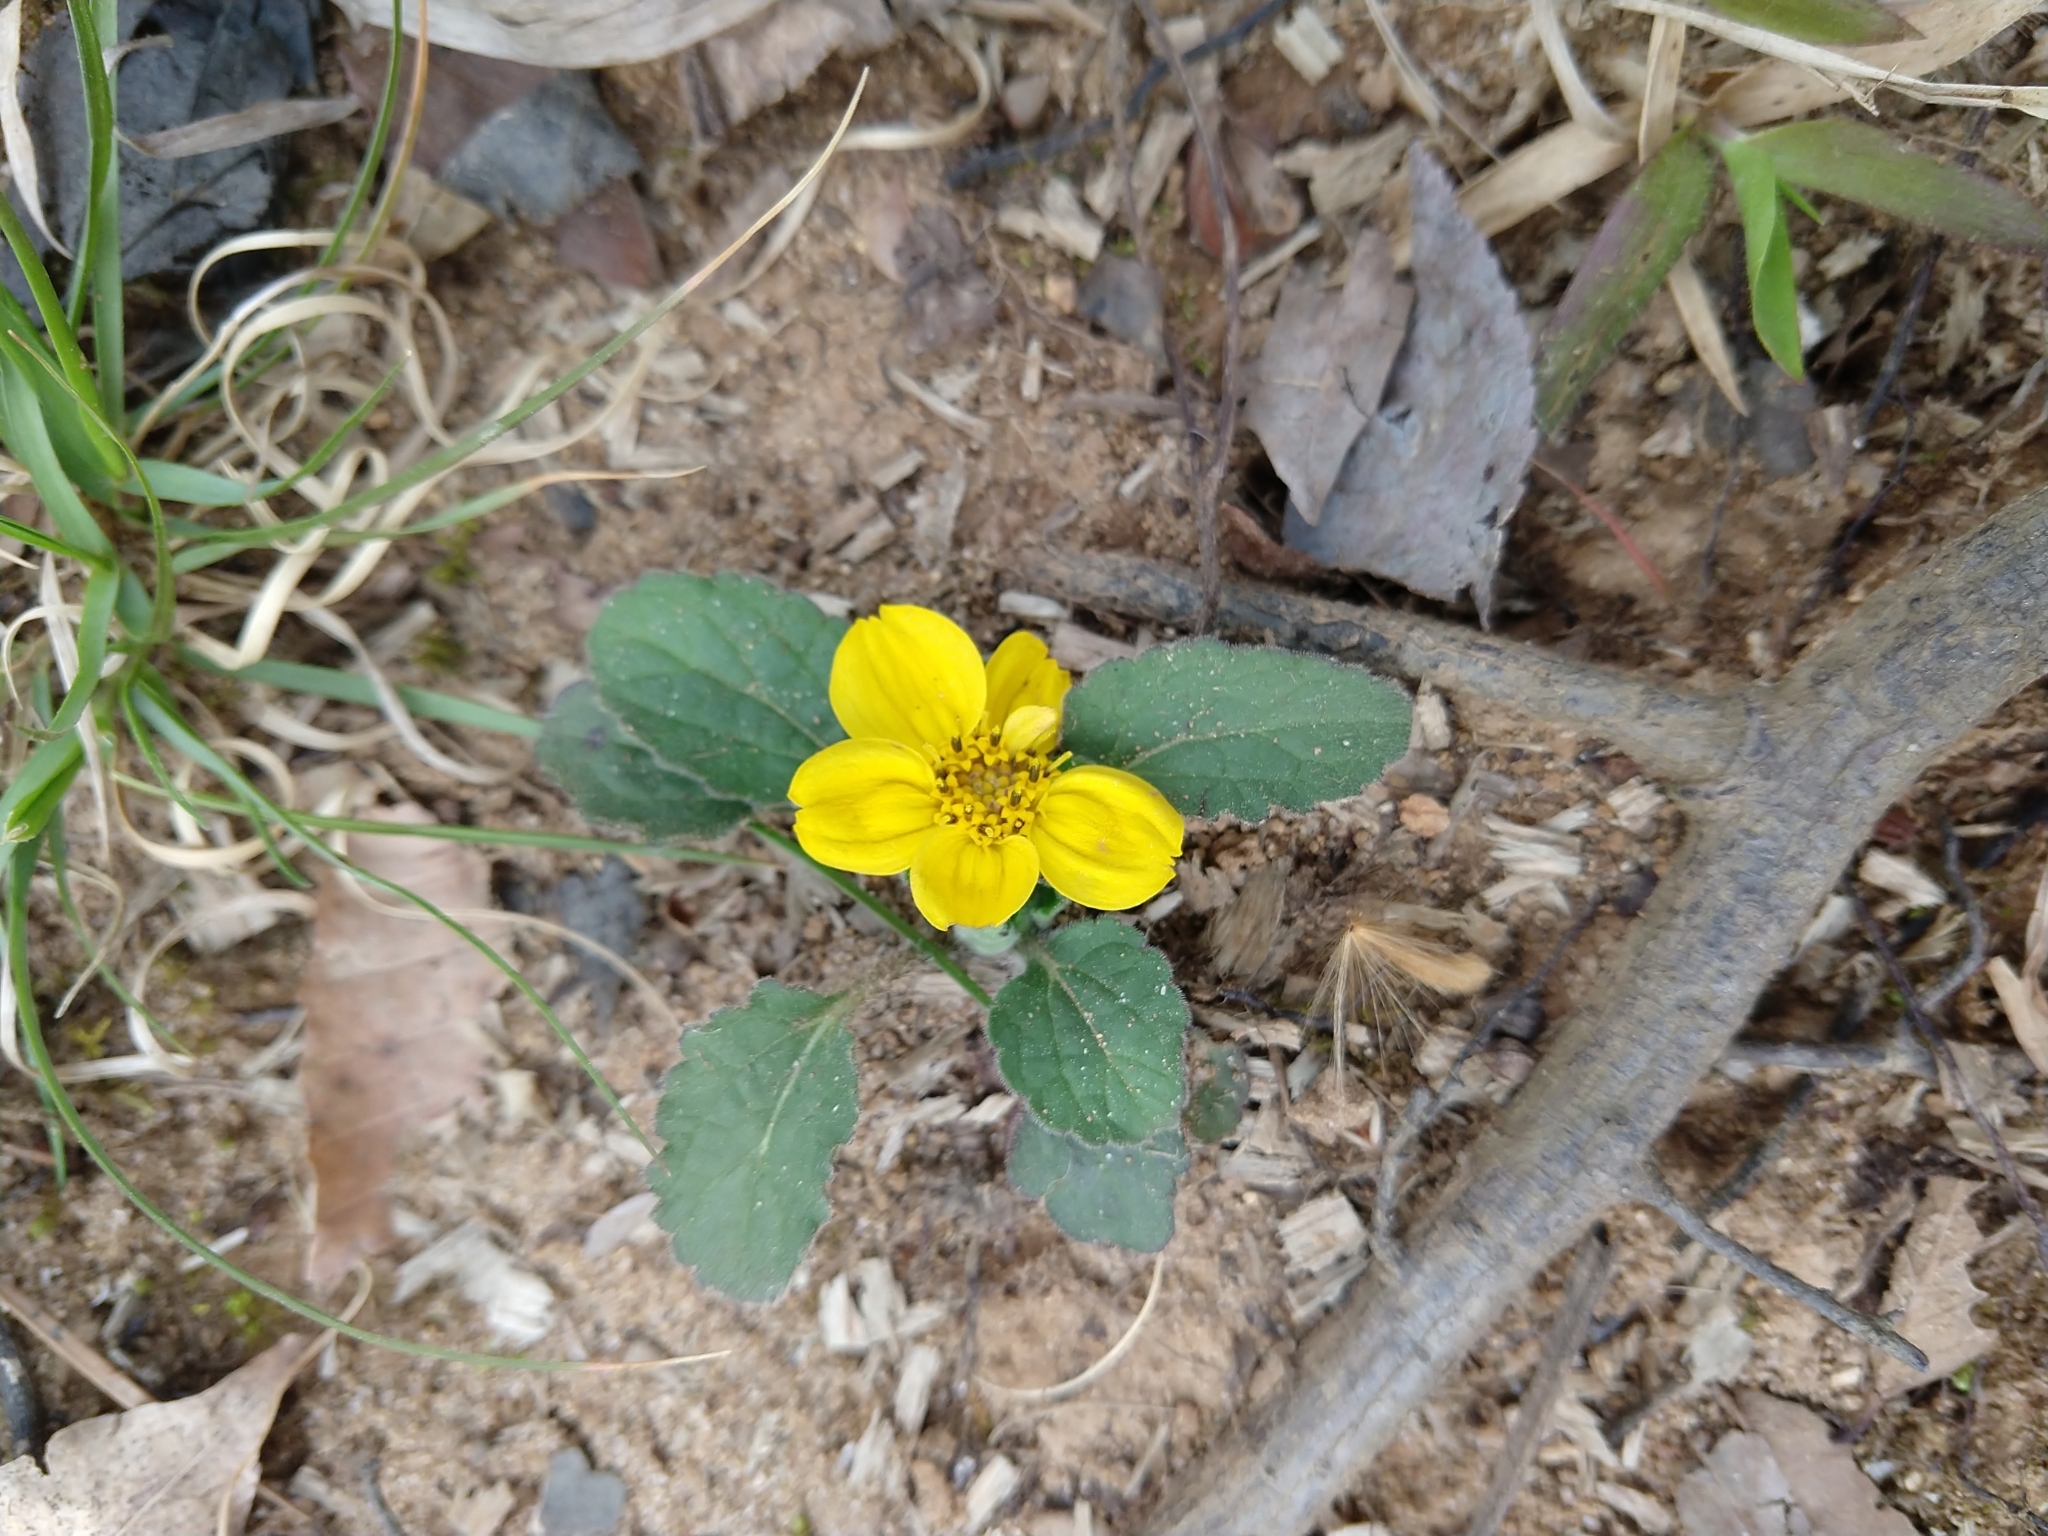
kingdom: Plantae
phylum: Tracheophyta
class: Magnoliopsida
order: Asterales
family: Asteraceae
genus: Chrysogonum
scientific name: Chrysogonum virginianum
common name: Golden-knee
